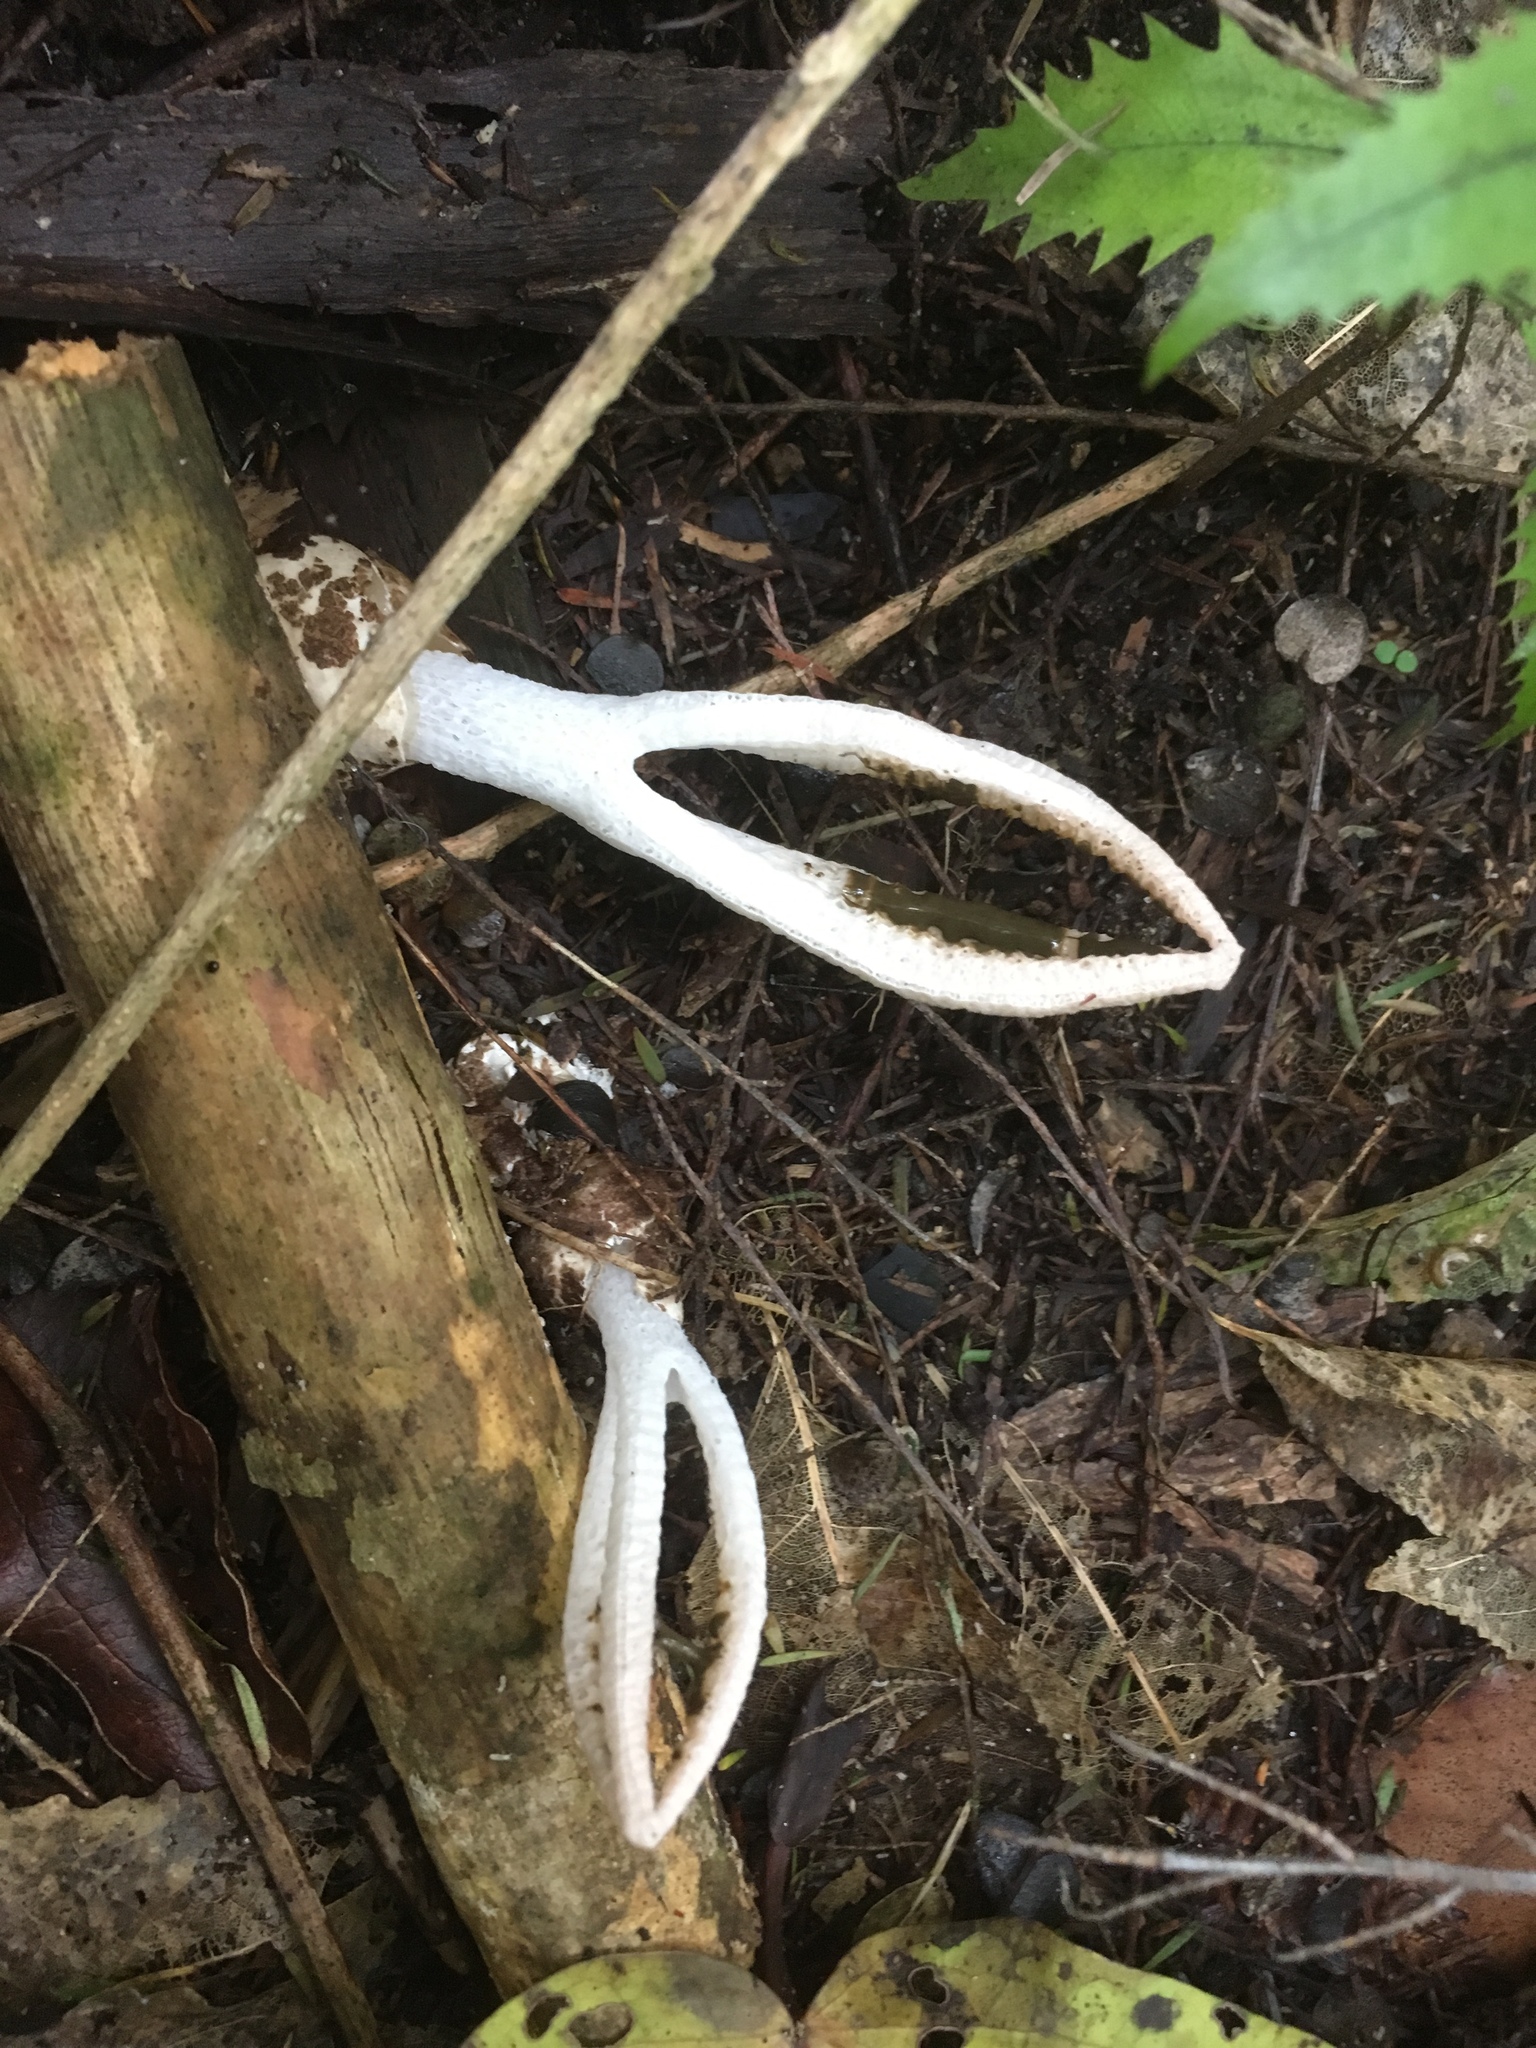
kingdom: Fungi
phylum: Basidiomycota
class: Agaricomycetes
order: Phallales
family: Phallaceae
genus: Pseudocolus
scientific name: Pseudocolus garciae
